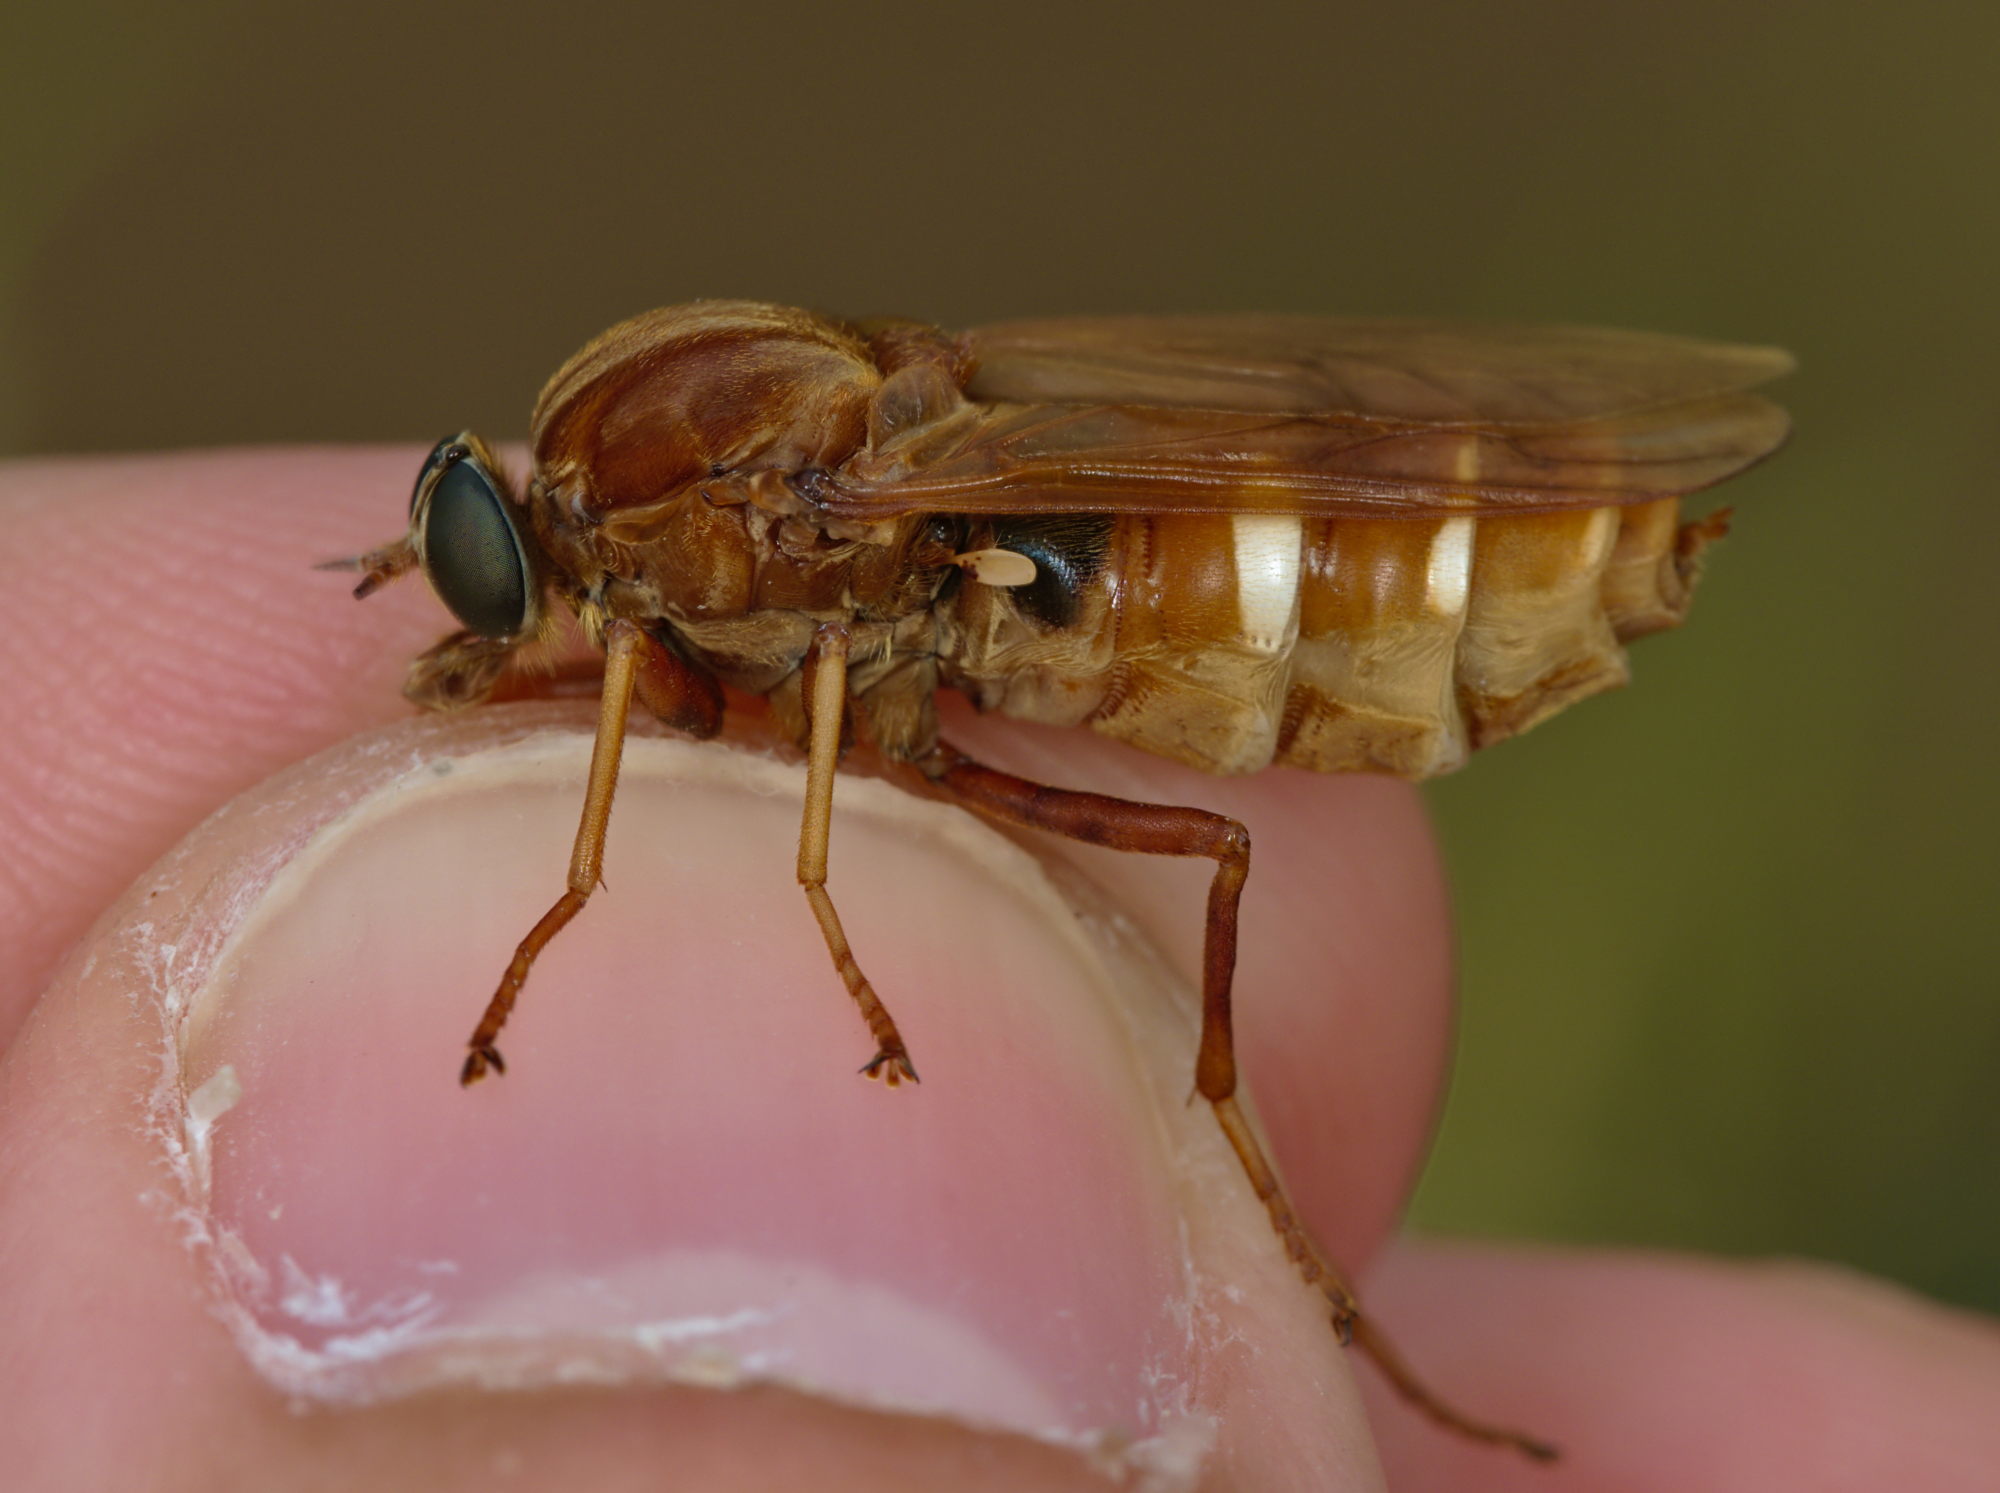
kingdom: Animalia
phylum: Arthropoda
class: Insecta
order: Diptera
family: Xylophagidae
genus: Coenomyia
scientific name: Coenomyia ferruginea
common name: Stink fly
